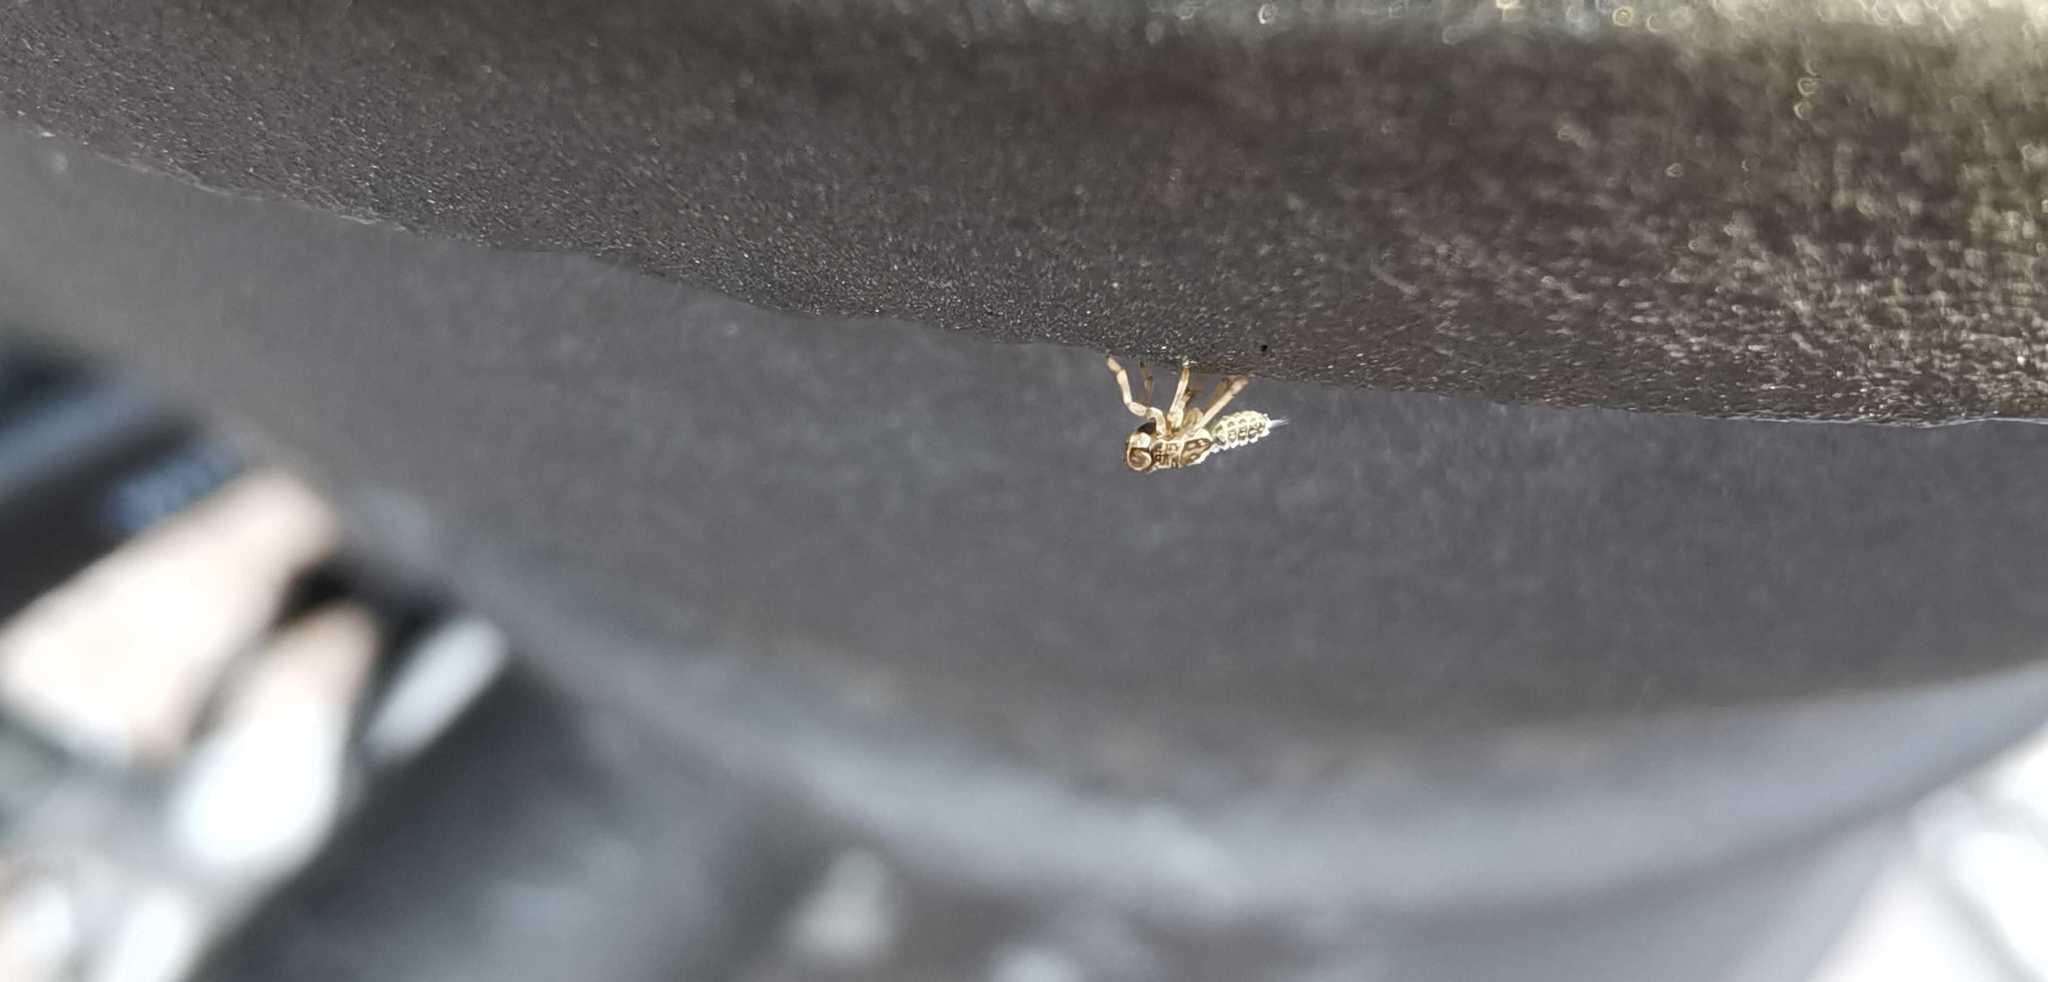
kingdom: Animalia
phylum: Arthropoda
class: Insecta
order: Hemiptera
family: Issidae
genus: Issus
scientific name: Issus
